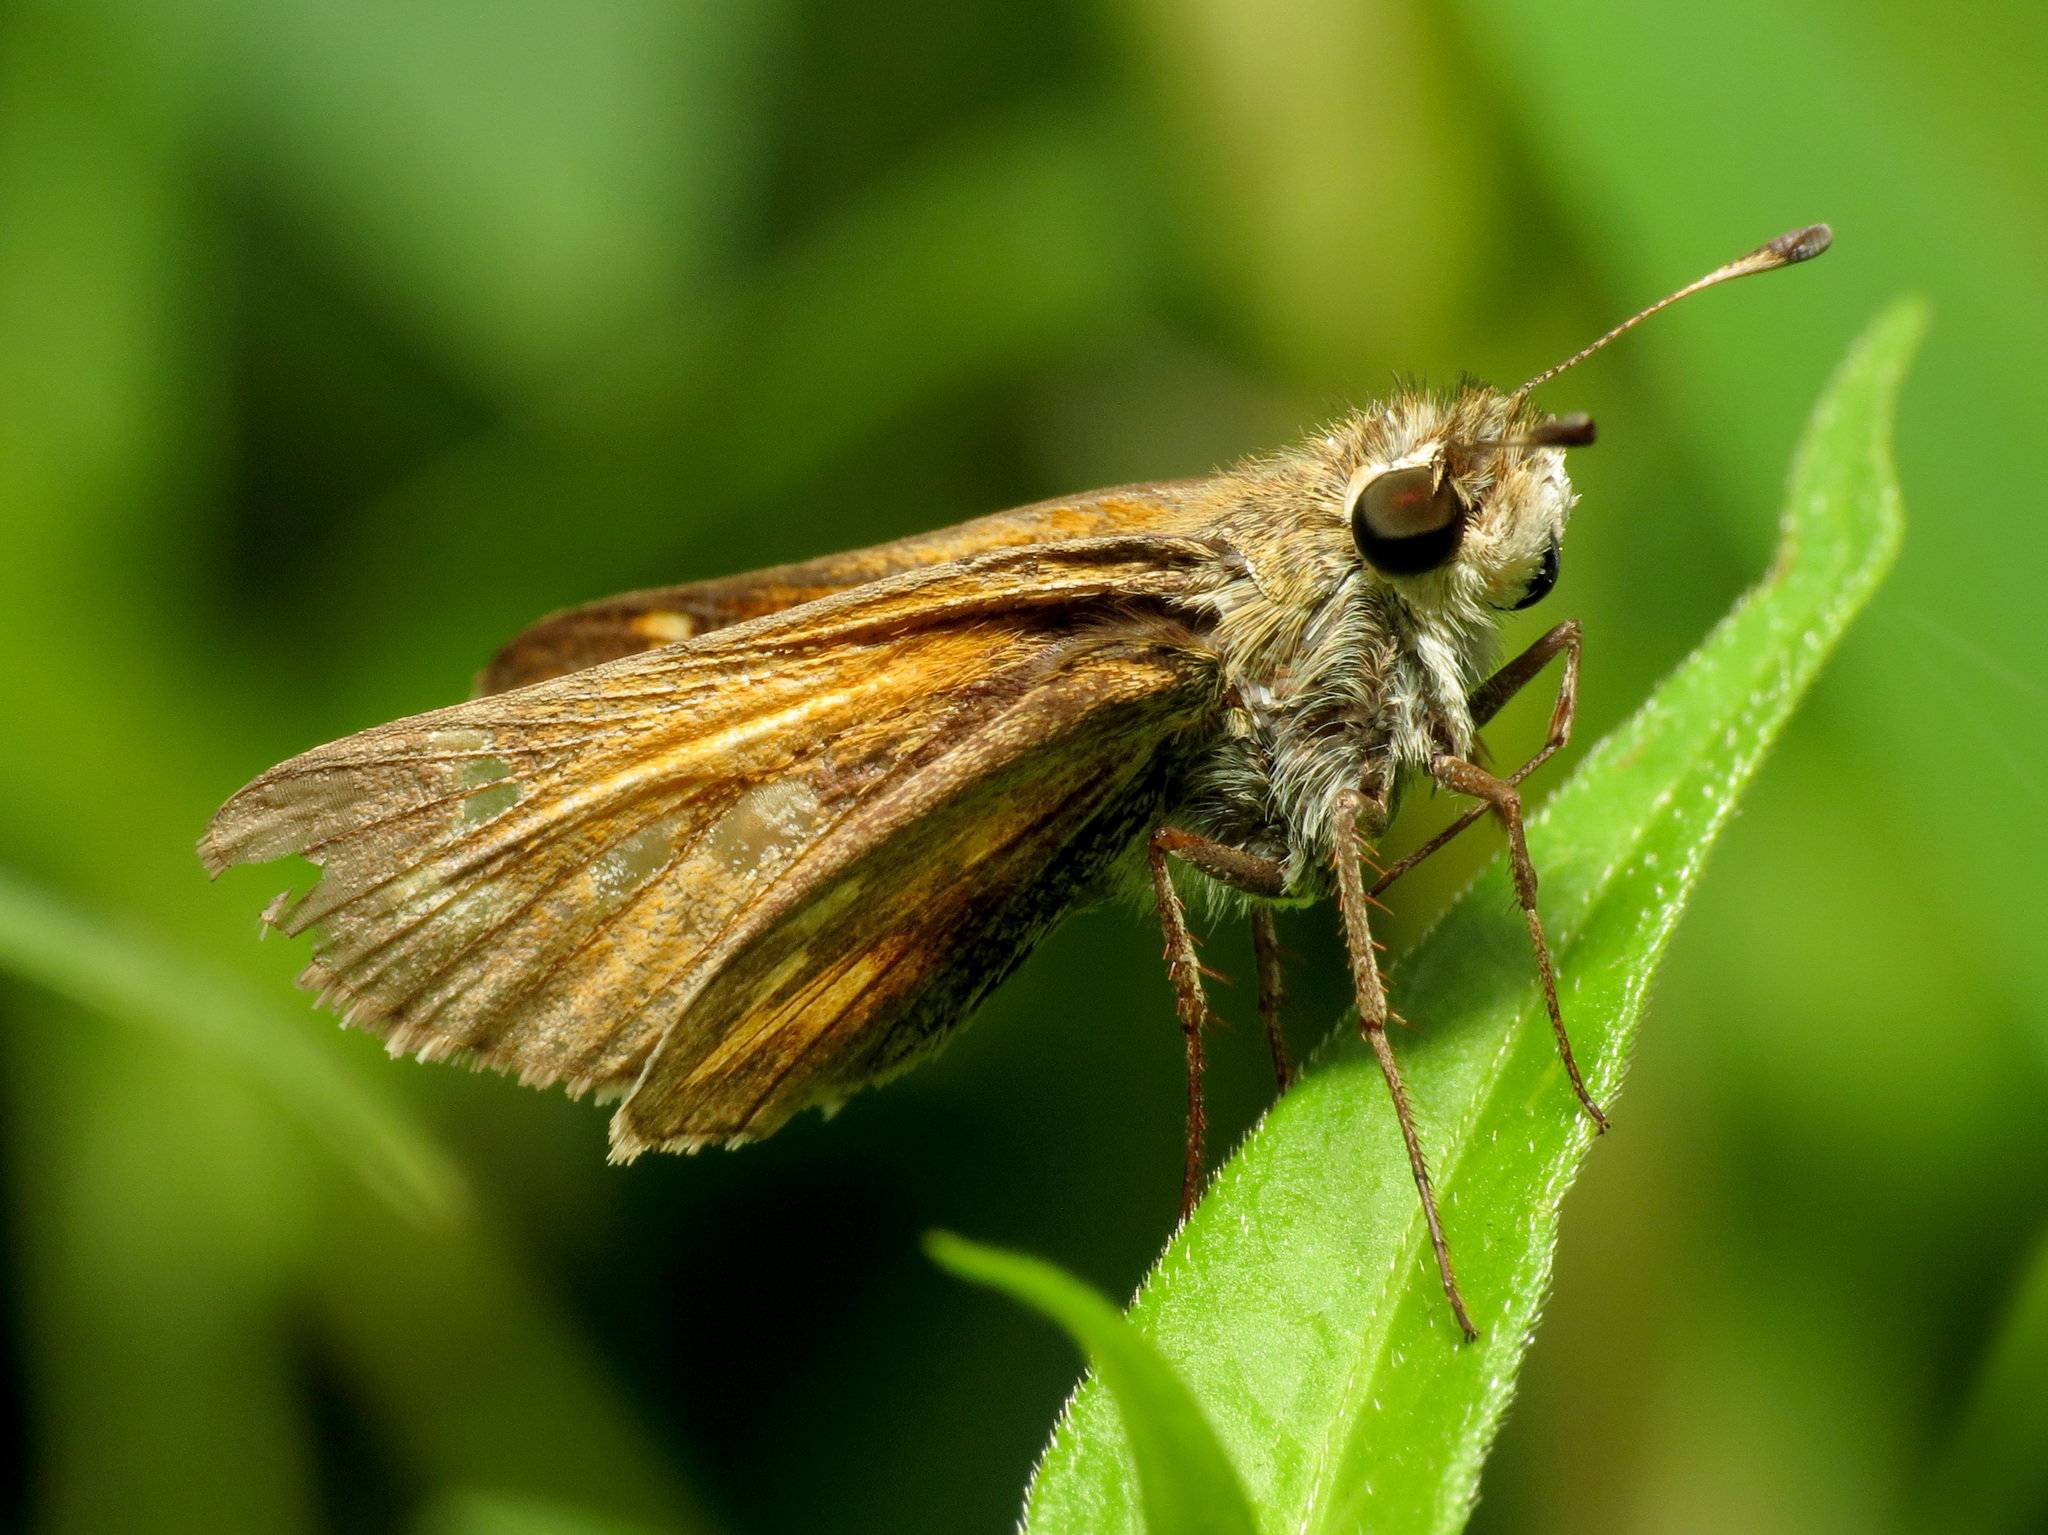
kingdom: Animalia
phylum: Arthropoda
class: Insecta
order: Lepidoptera
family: Hesperiidae
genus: Atalopedes
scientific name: Atalopedes
